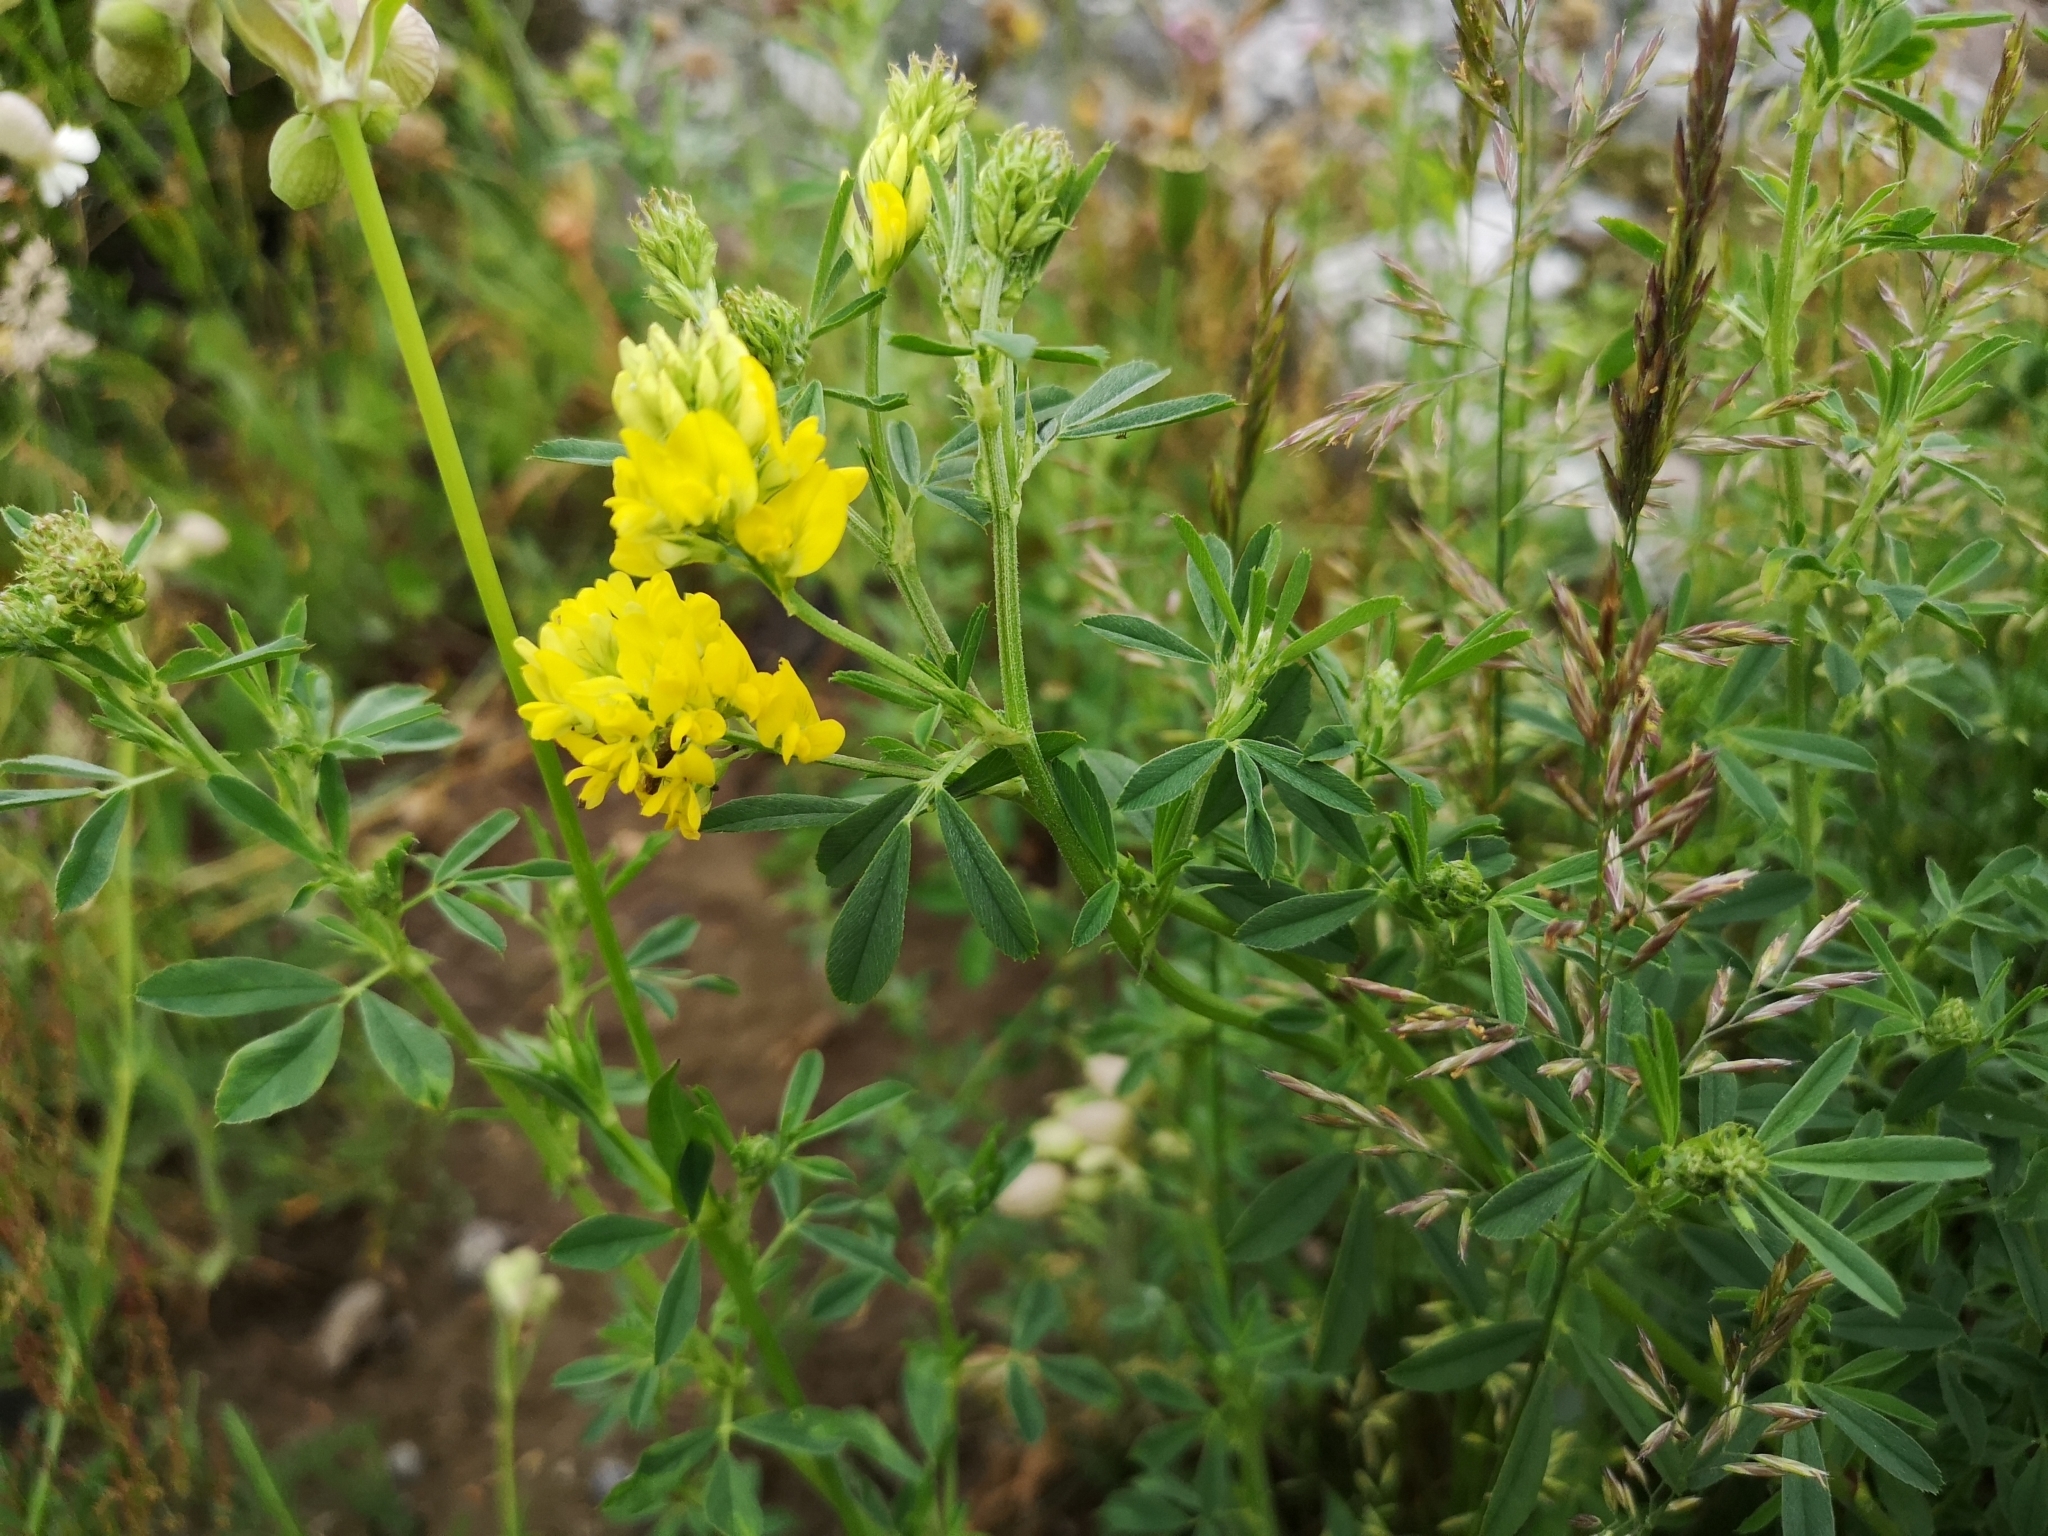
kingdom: Plantae
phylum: Tracheophyta
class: Magnoliopsida
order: Fabales
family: Fabaceae
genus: Medicago
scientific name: Medicago falcata
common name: Sickle medick
